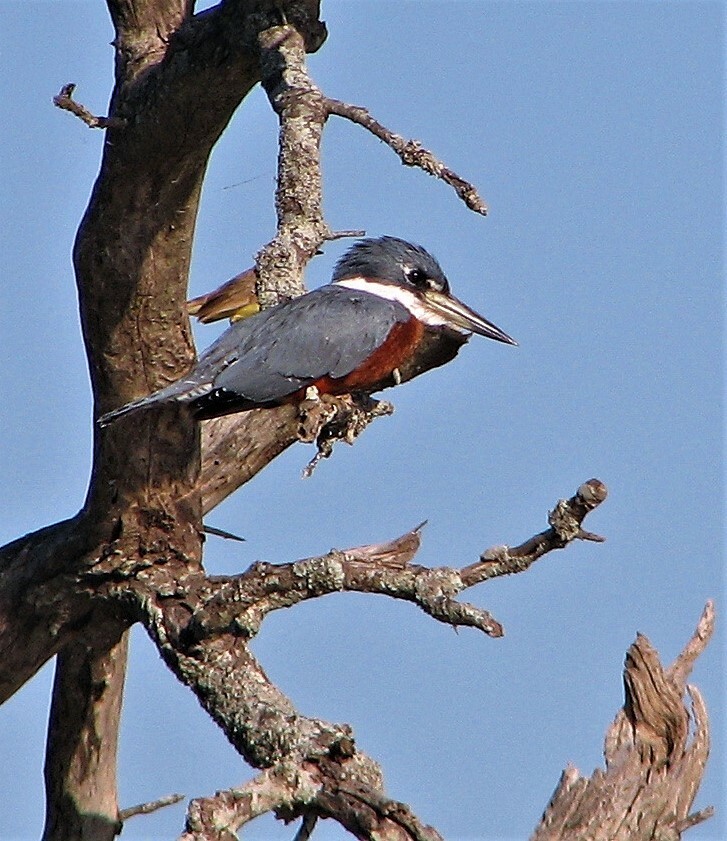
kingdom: Animalia
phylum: Chordata
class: Aves
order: Coraciiformes
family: Alcedinidae
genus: Megaceryle
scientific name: Megaceryle torquata
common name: Ringed kingfisher
